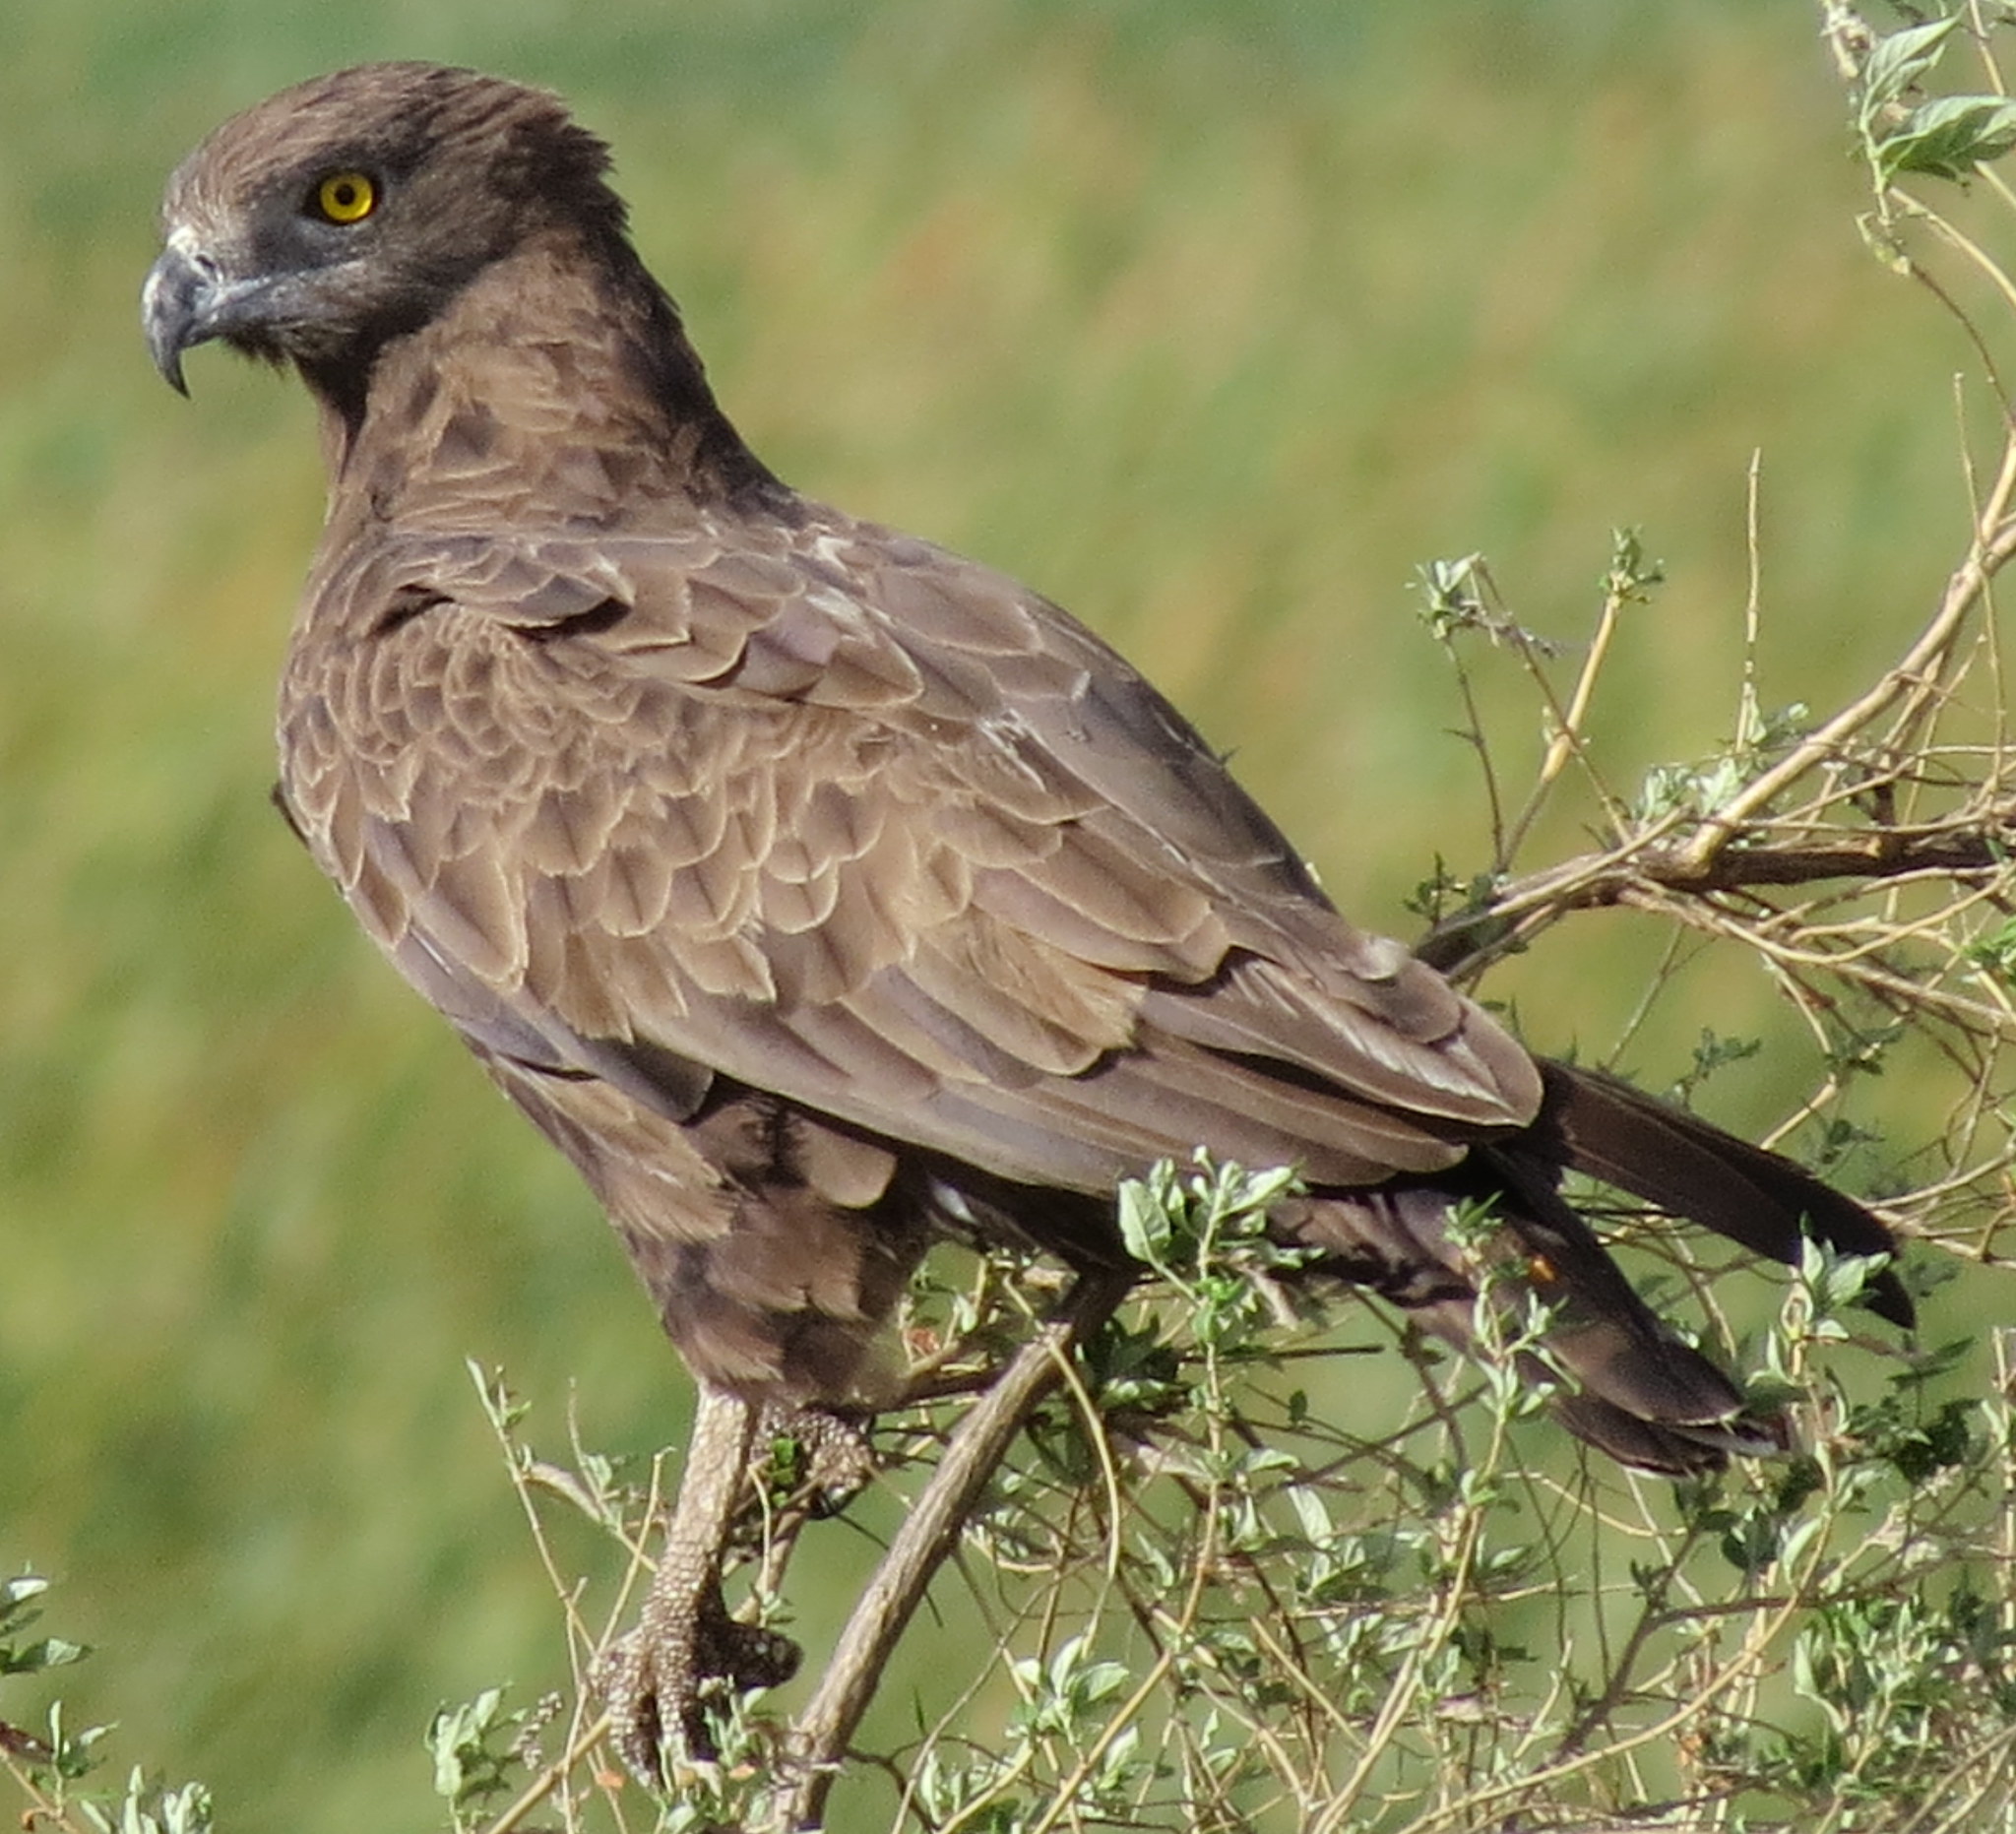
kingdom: Animalia
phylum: Chordata
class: Aves
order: Accipitriformes
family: Accipitridae
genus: Circaetus
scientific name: Circaetus cinereus
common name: Brown snake eagle
